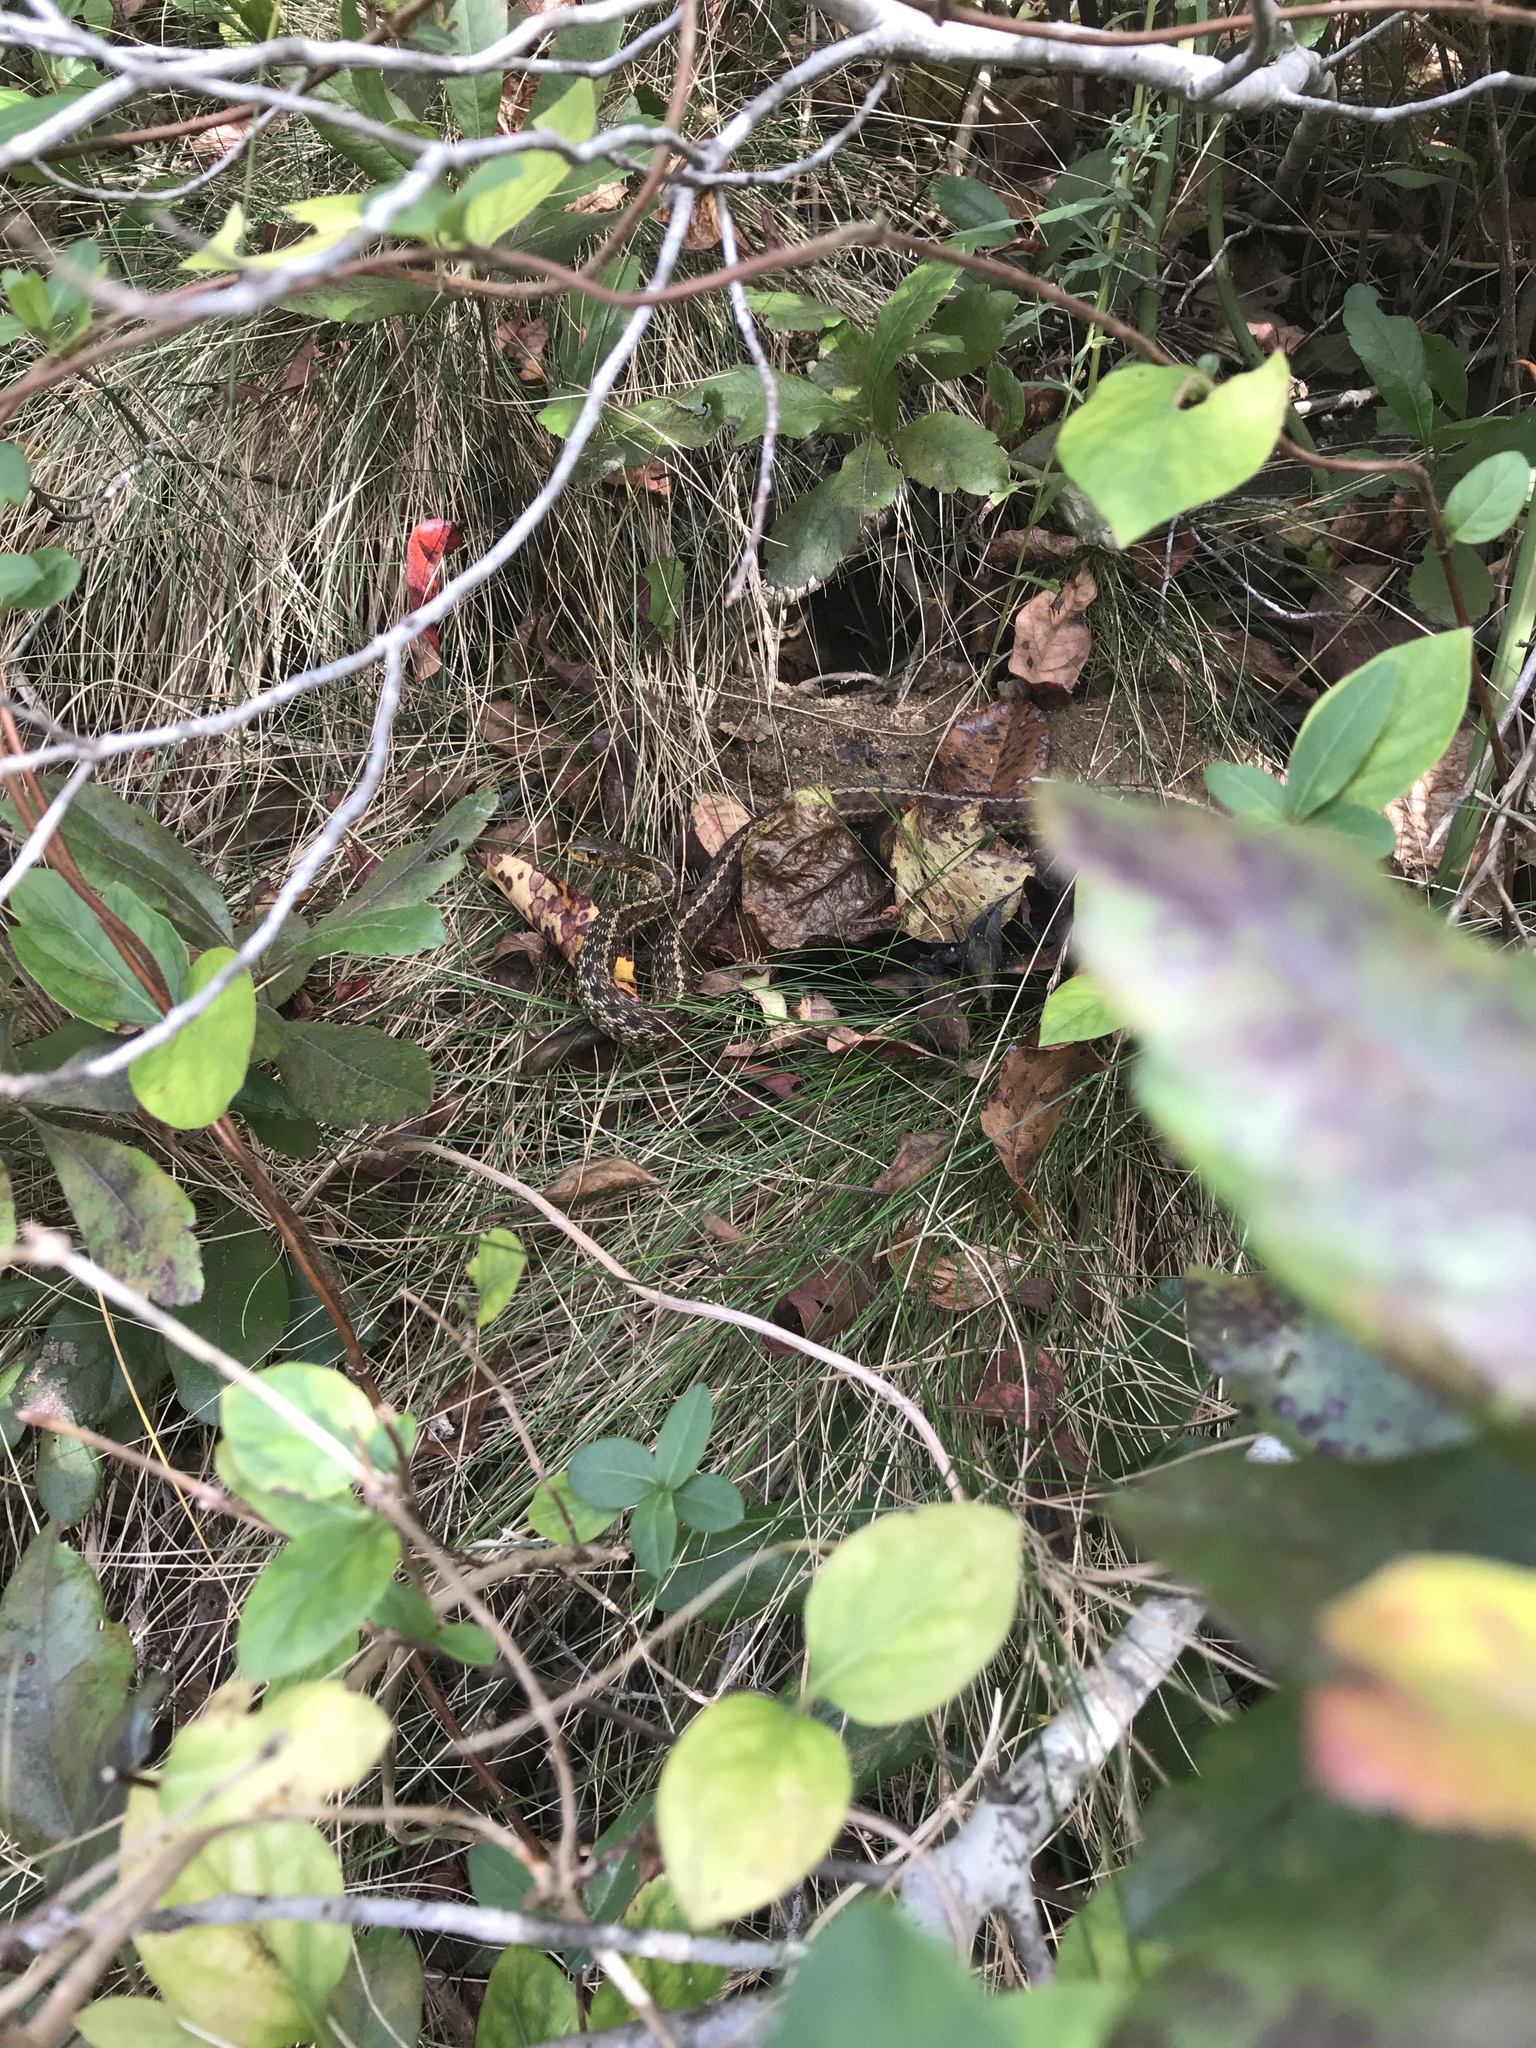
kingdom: Animalia
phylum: Chordata
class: Squamata
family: Colubridae
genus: Thamnophis
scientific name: Thamnophis sirtalis
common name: Common garter snake
